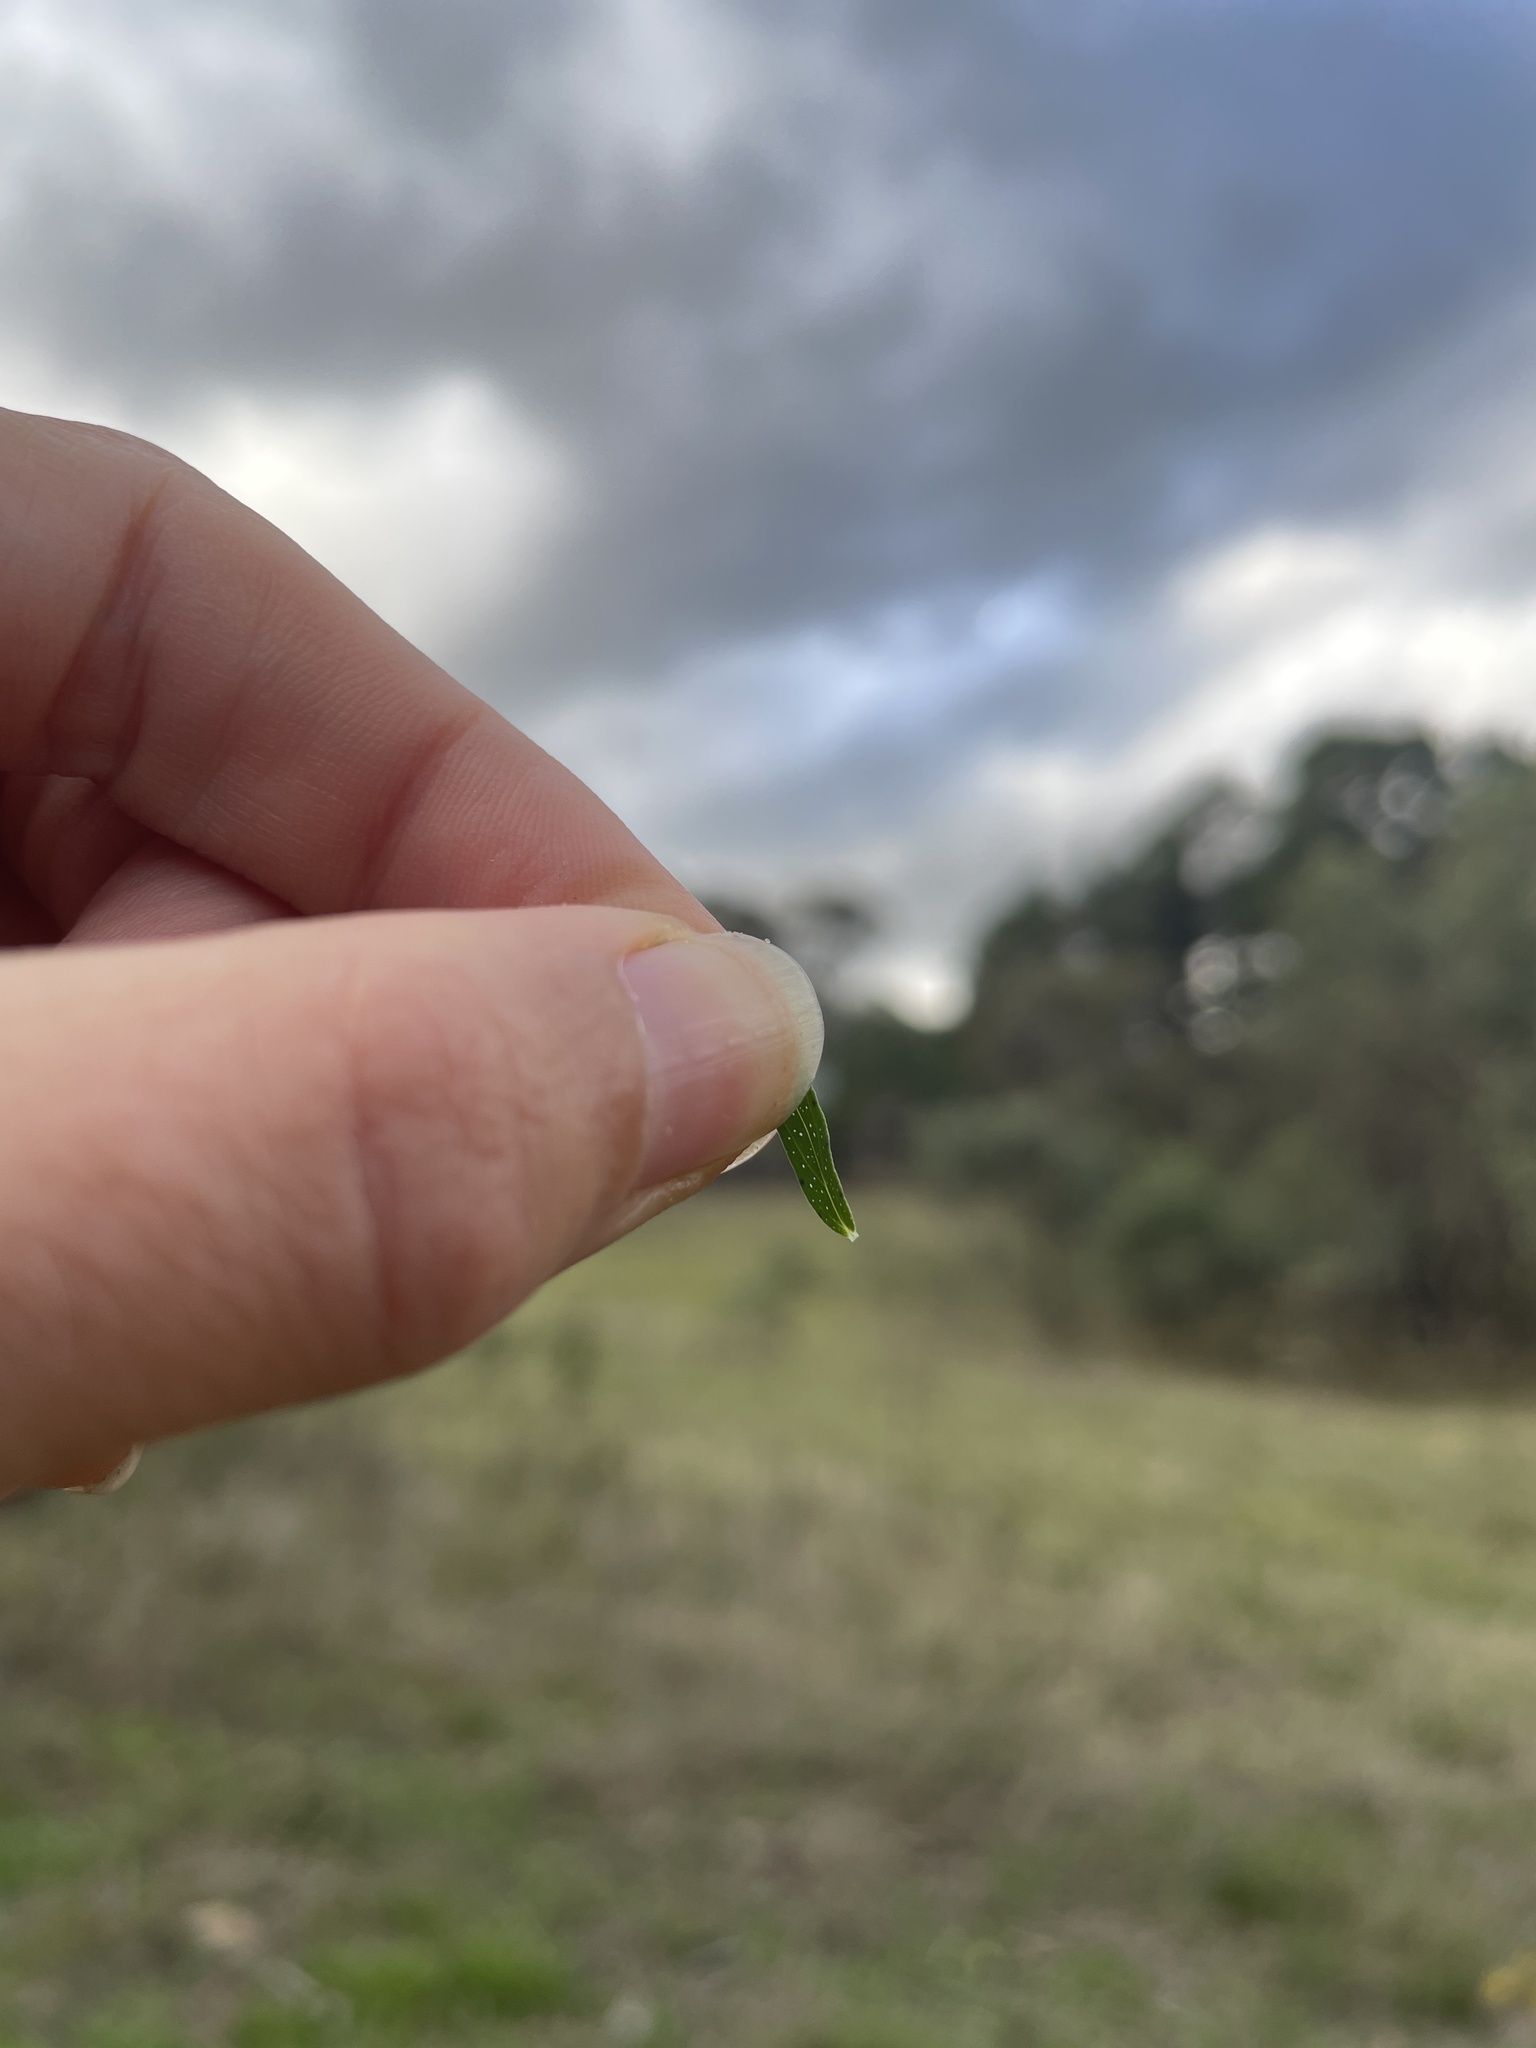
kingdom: Plantae
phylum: Tracheophyta
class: Magnoliopsida
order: Malpighiales
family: Hypericaceae
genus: Hypericum
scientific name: Hypericum perforatum
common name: Common st. johnswort
